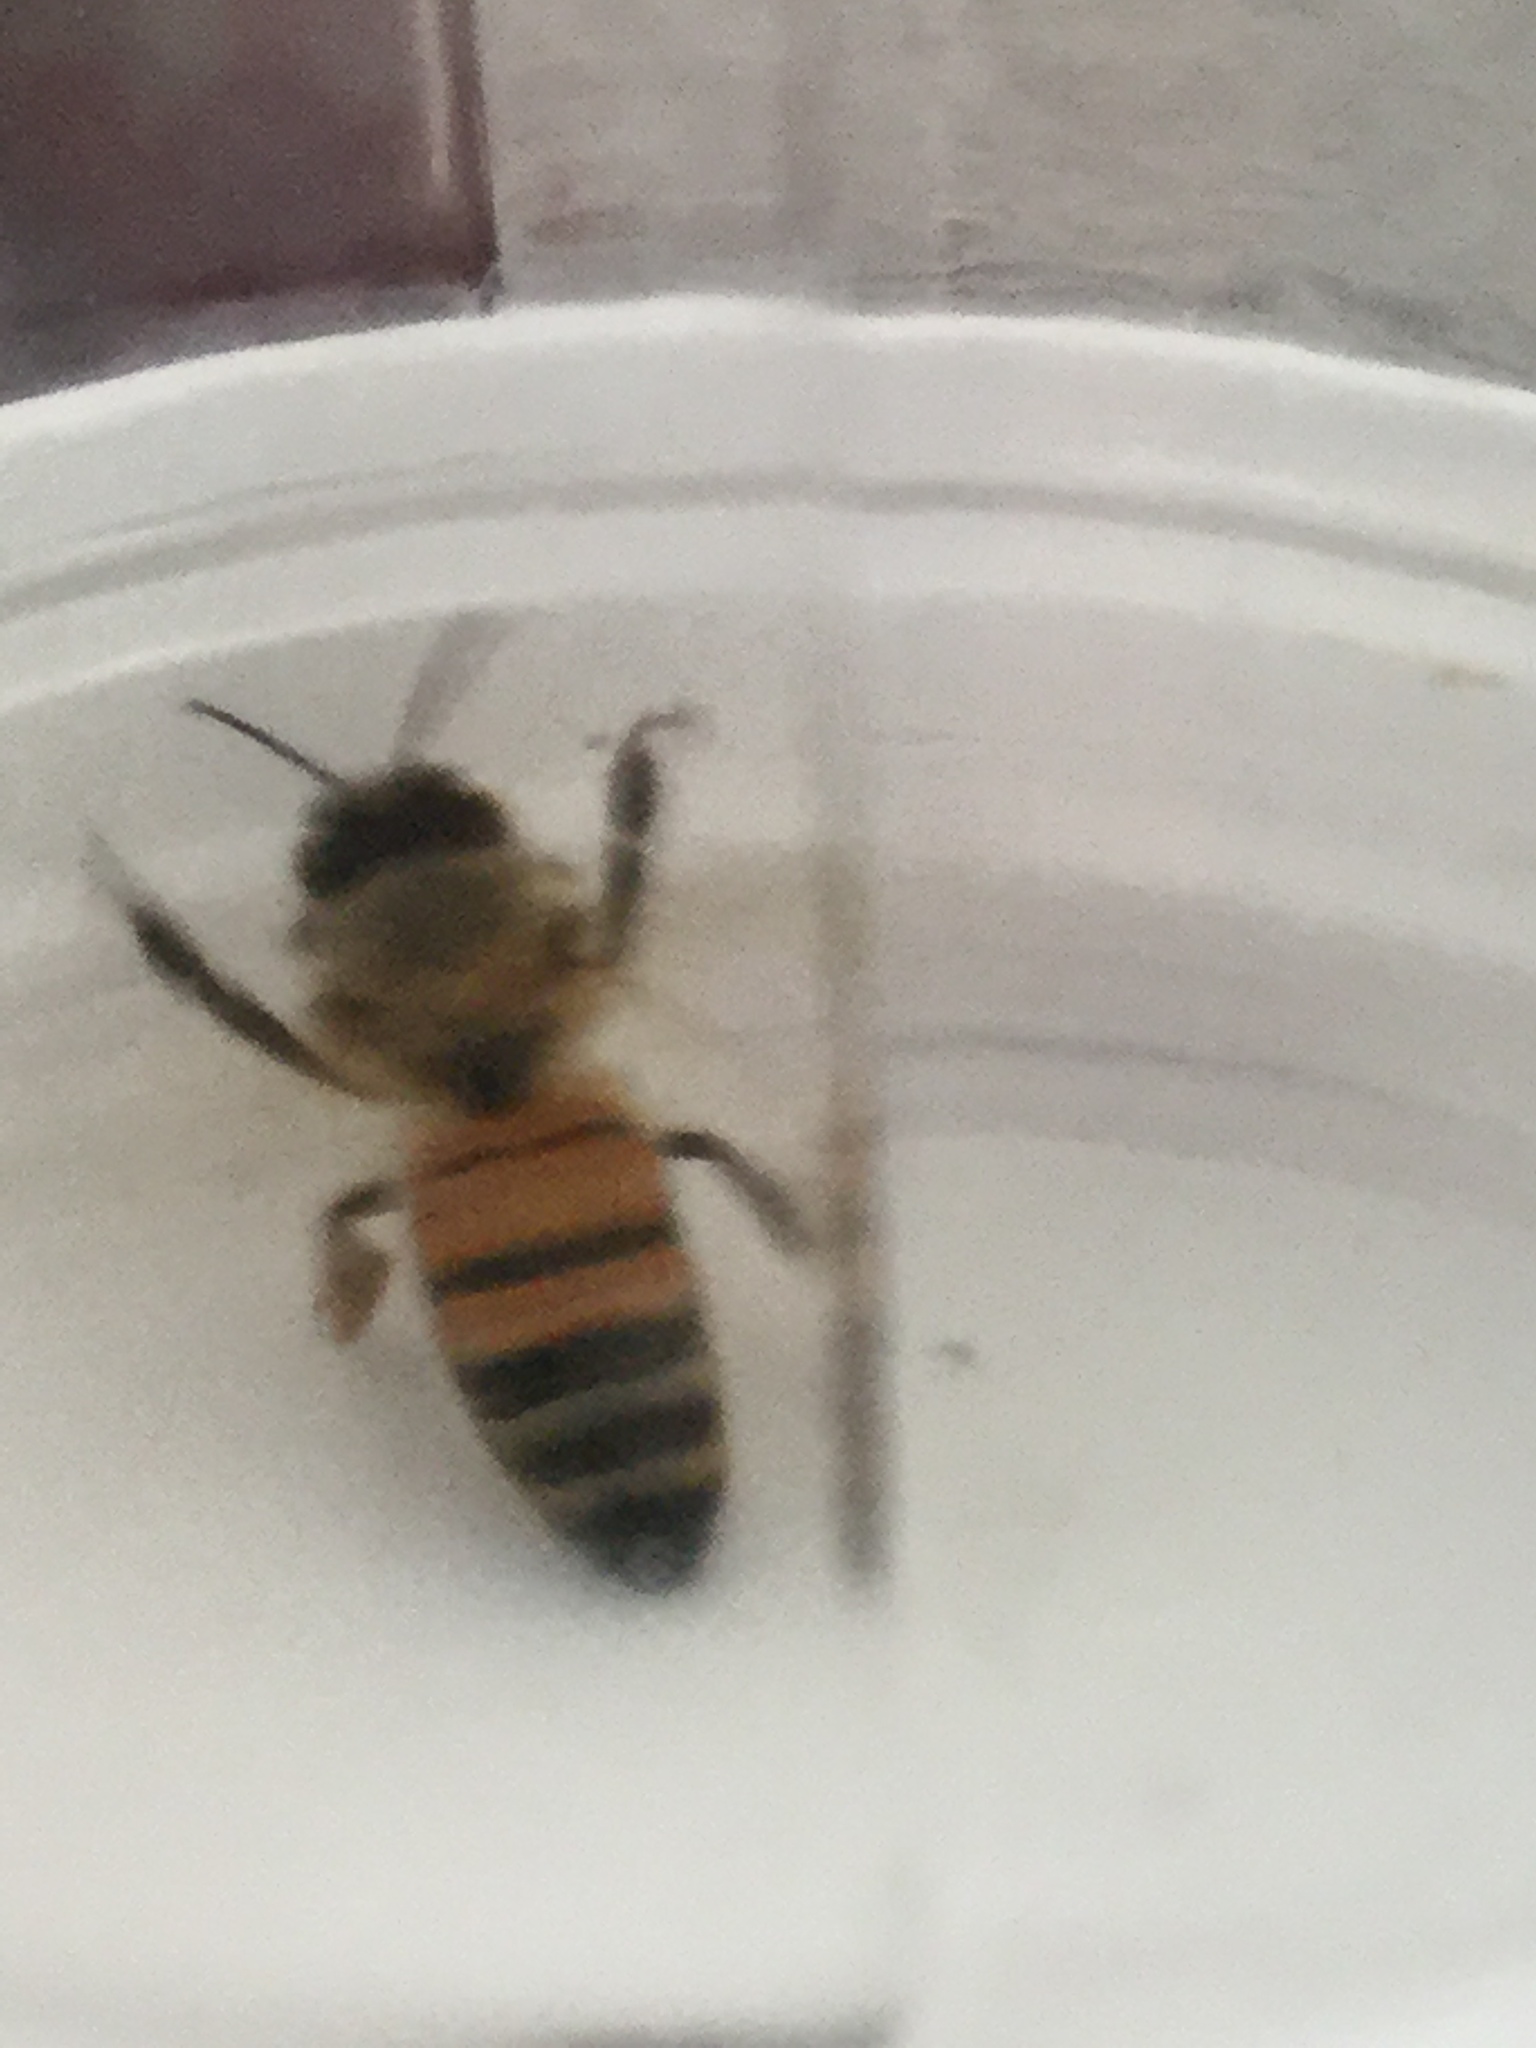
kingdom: Animalia
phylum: Arthropoda
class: Insecta
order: Hymenoptera
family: Apidae
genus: Apis
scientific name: Apis mellifera
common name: Honey bee
